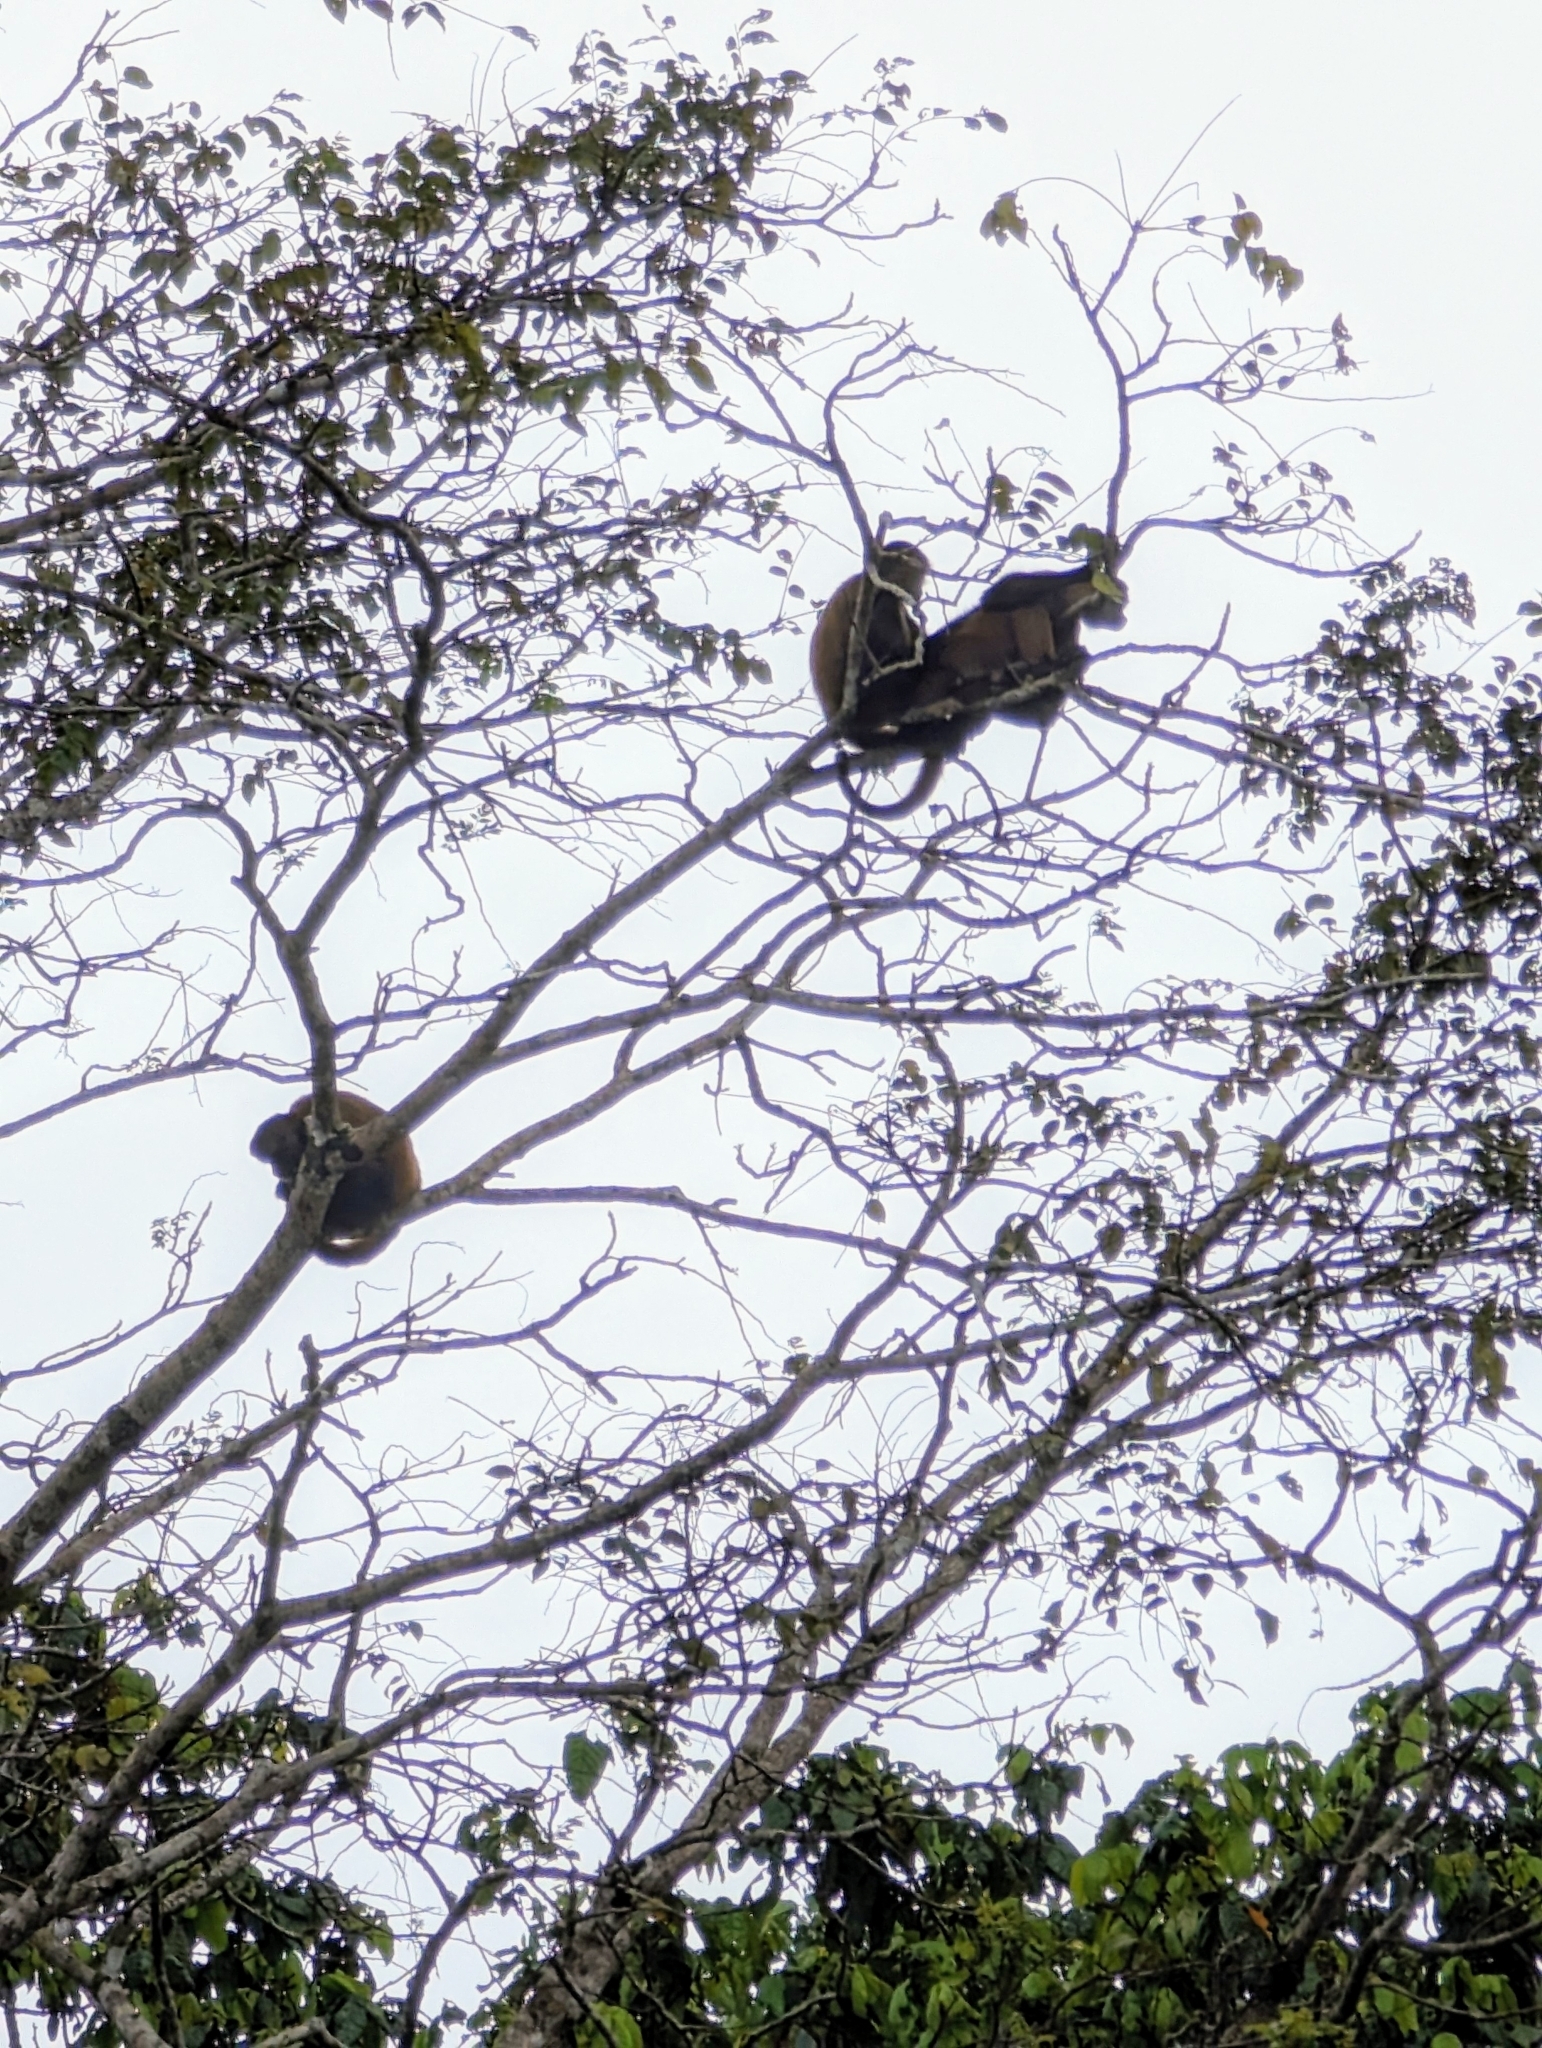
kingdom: Animalia
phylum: Chordata
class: Mammalia
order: Primates
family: Atelidae
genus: Alouatta
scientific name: Alouatta palliata
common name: Mantled howler
